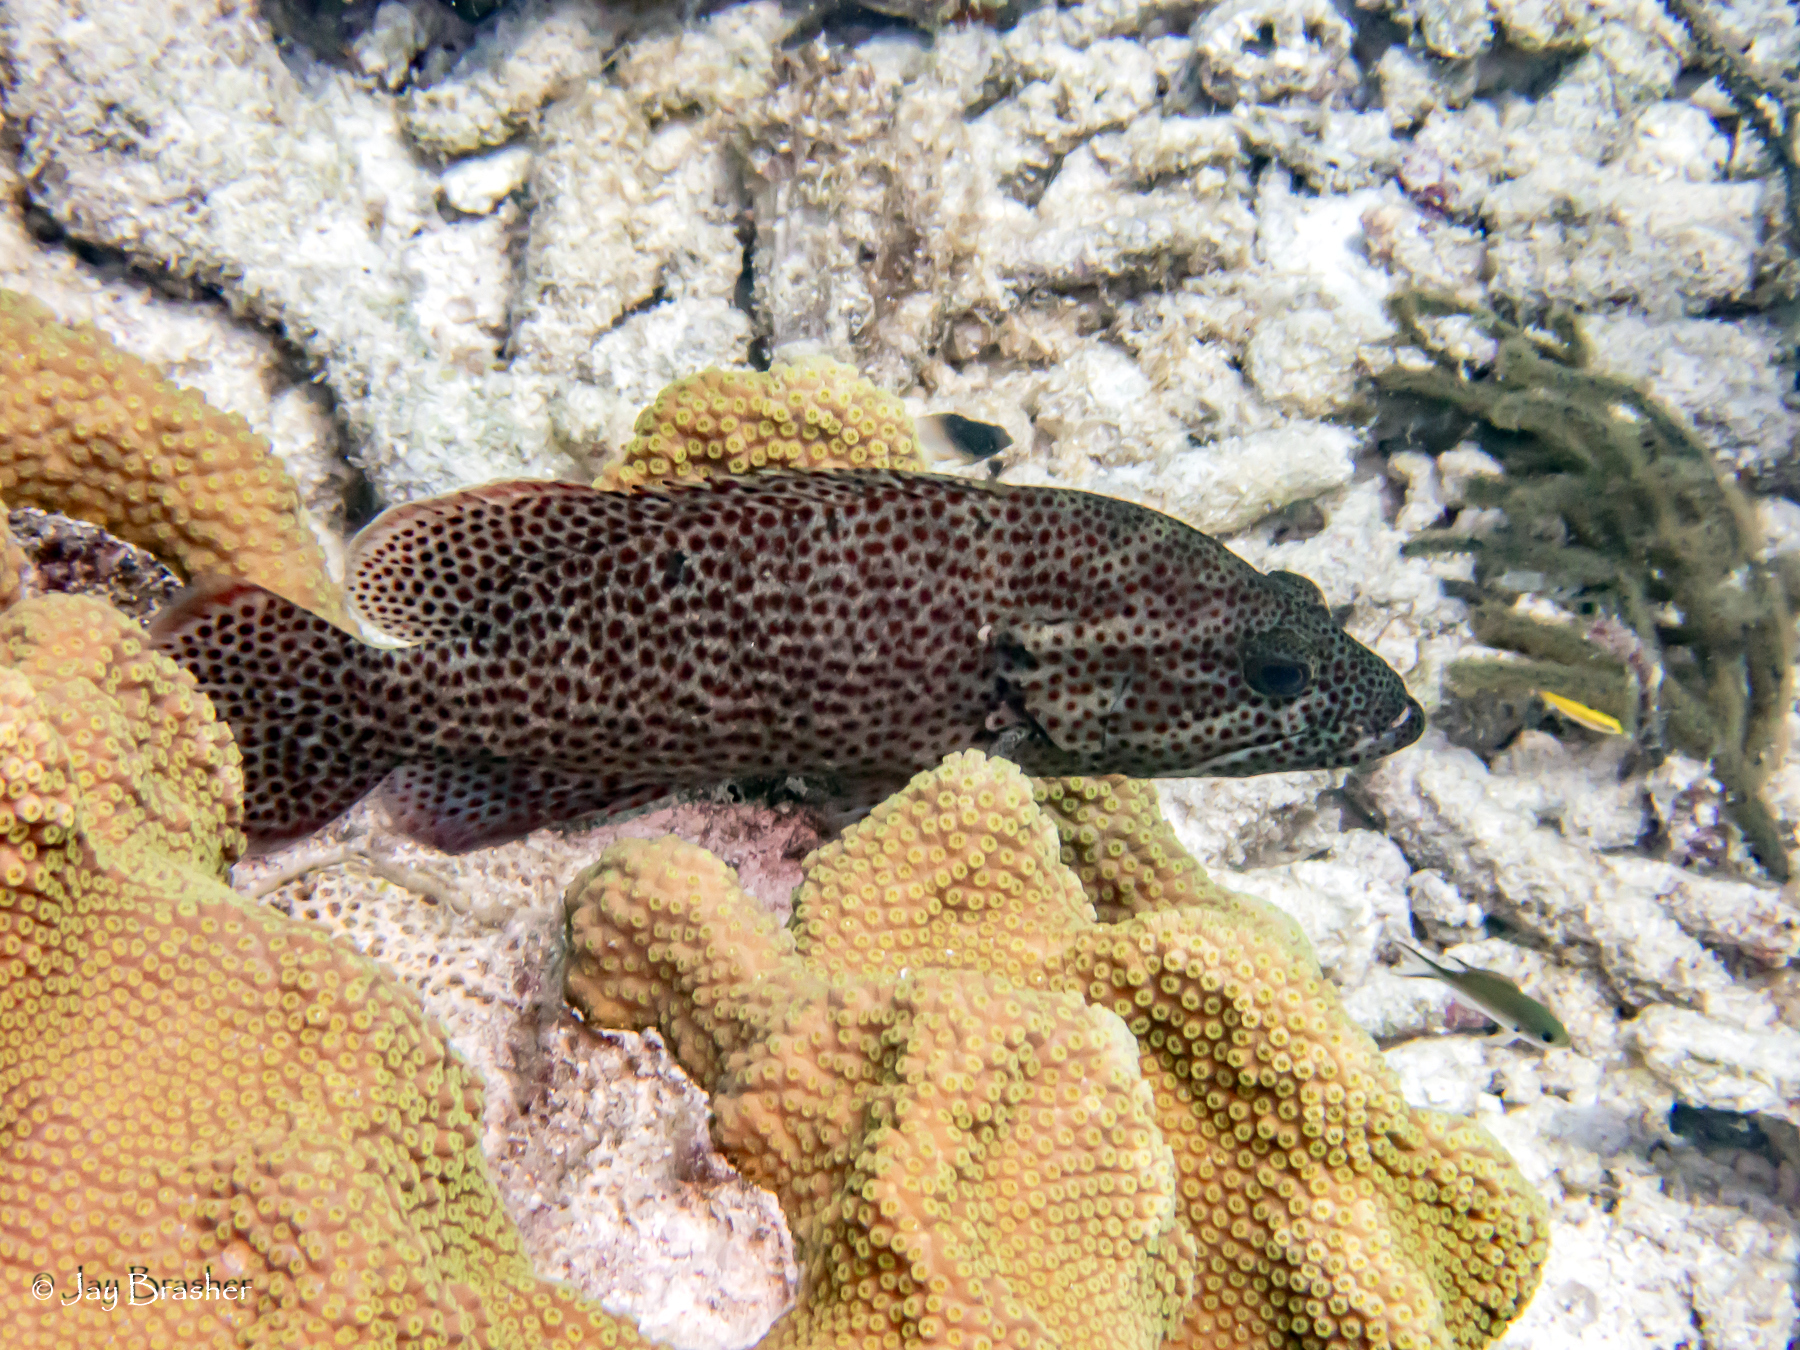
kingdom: Animalia
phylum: Chordata
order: Perciformes
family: Serranidae
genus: Cephalopholis
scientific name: Cephalopholis cruentata
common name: Graysby
